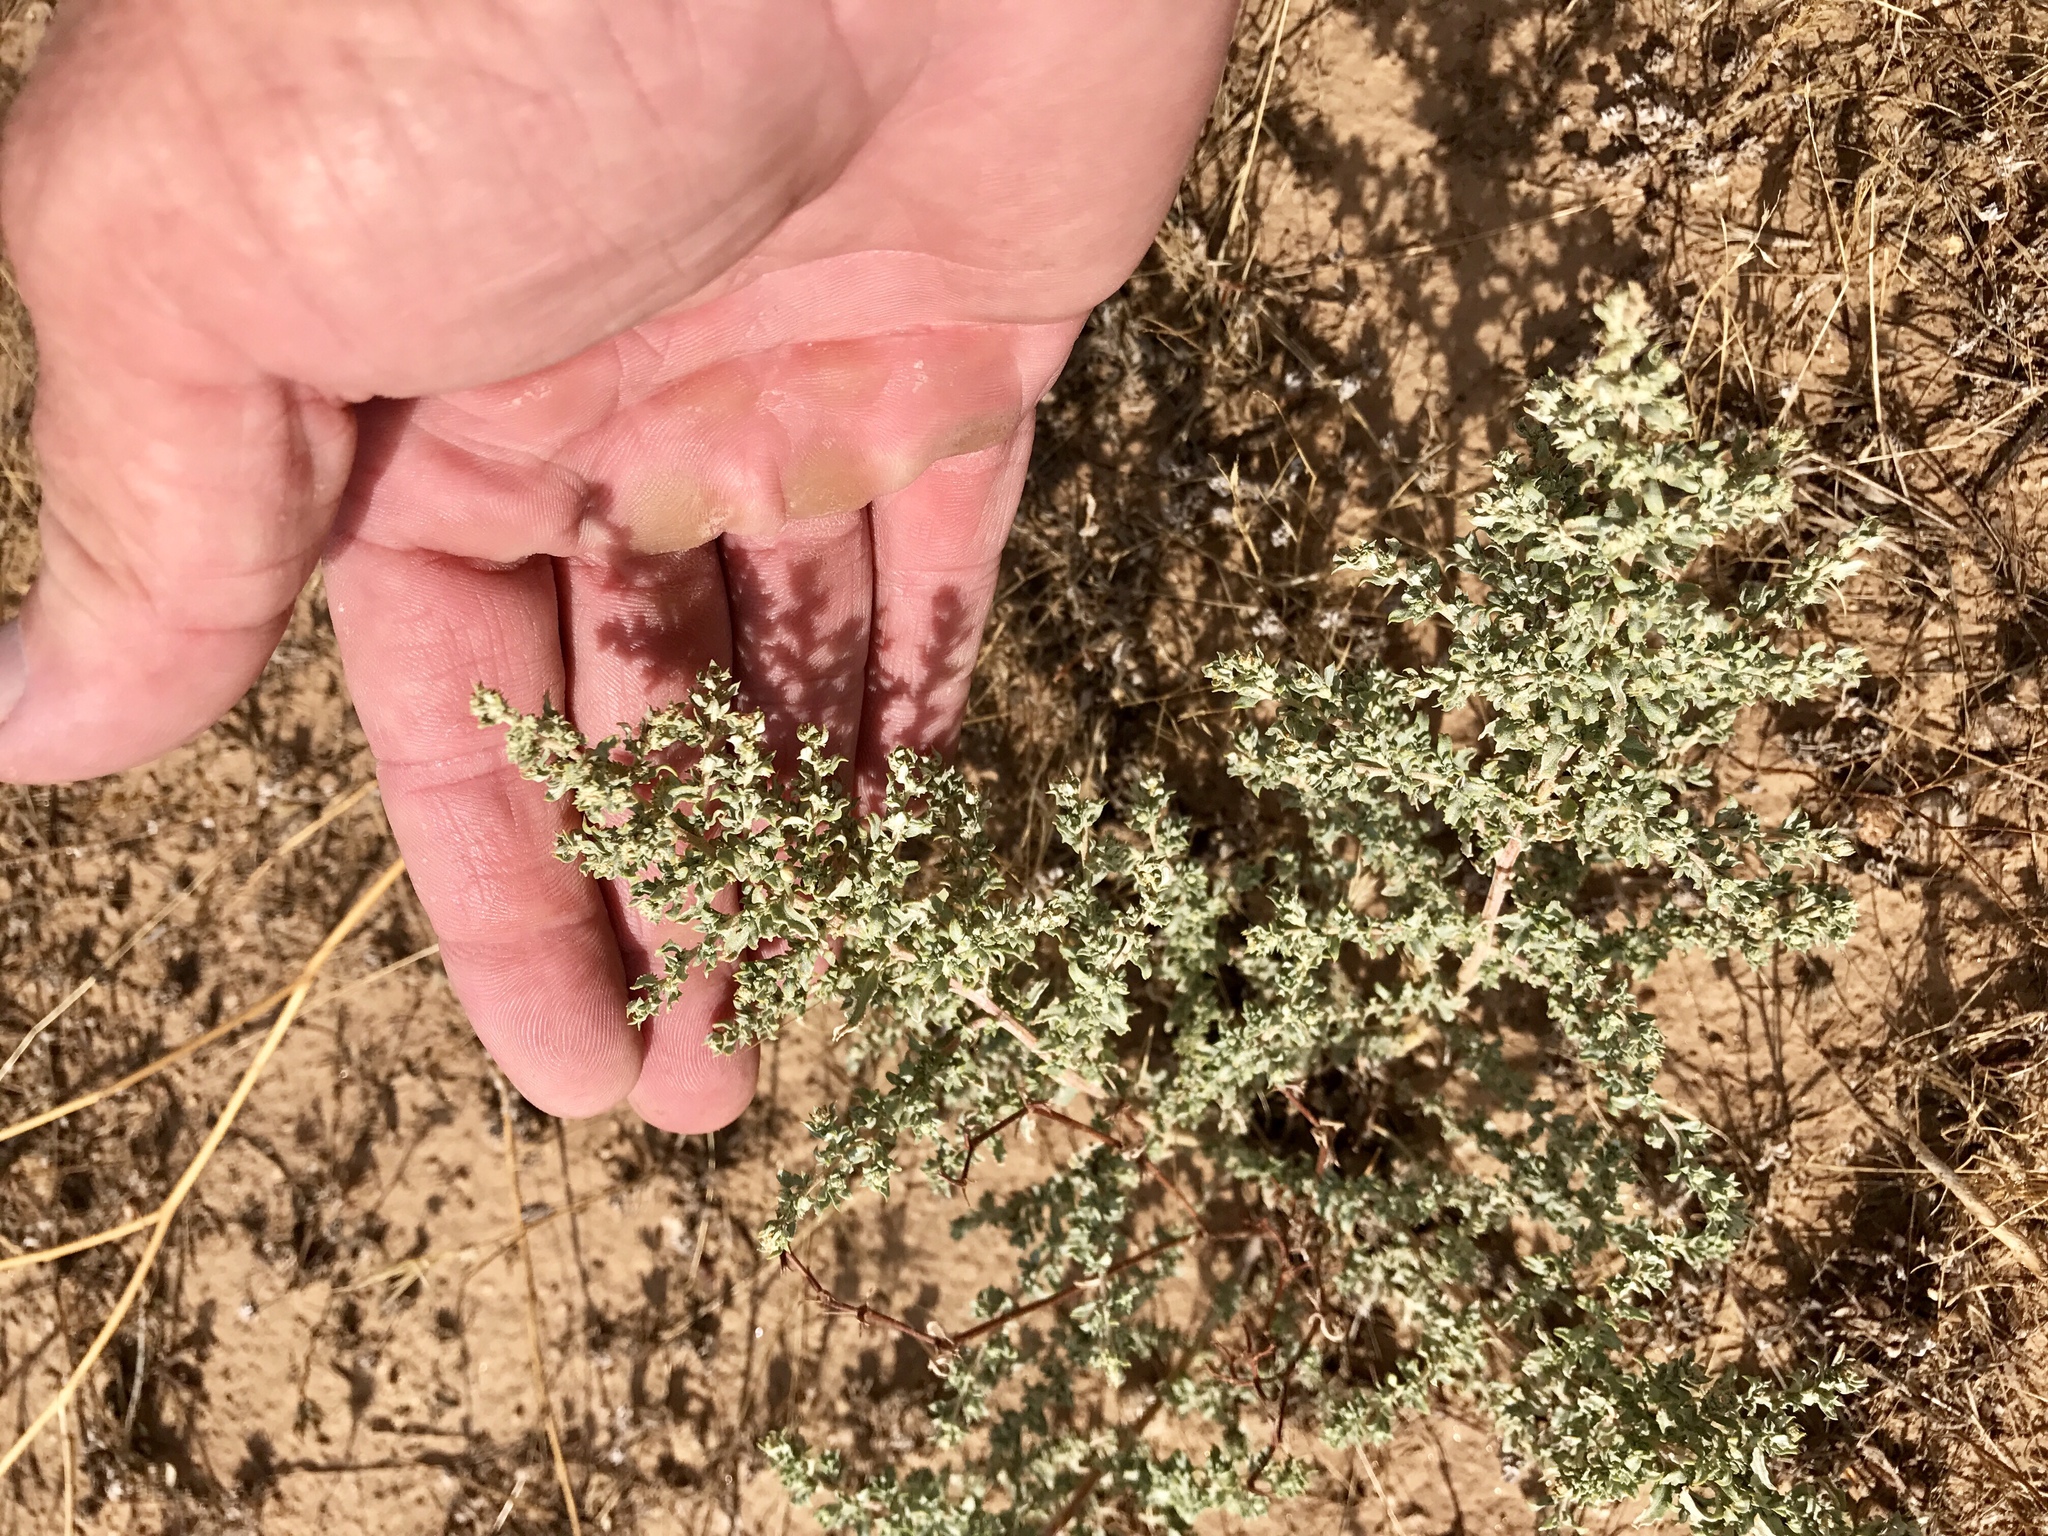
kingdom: Plantae
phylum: Tracheophyta
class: Magnoliopsida
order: Caryophyllales
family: Amaranthaceae
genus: Atriplex
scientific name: Atriplex elegans
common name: Wheelscale orach
